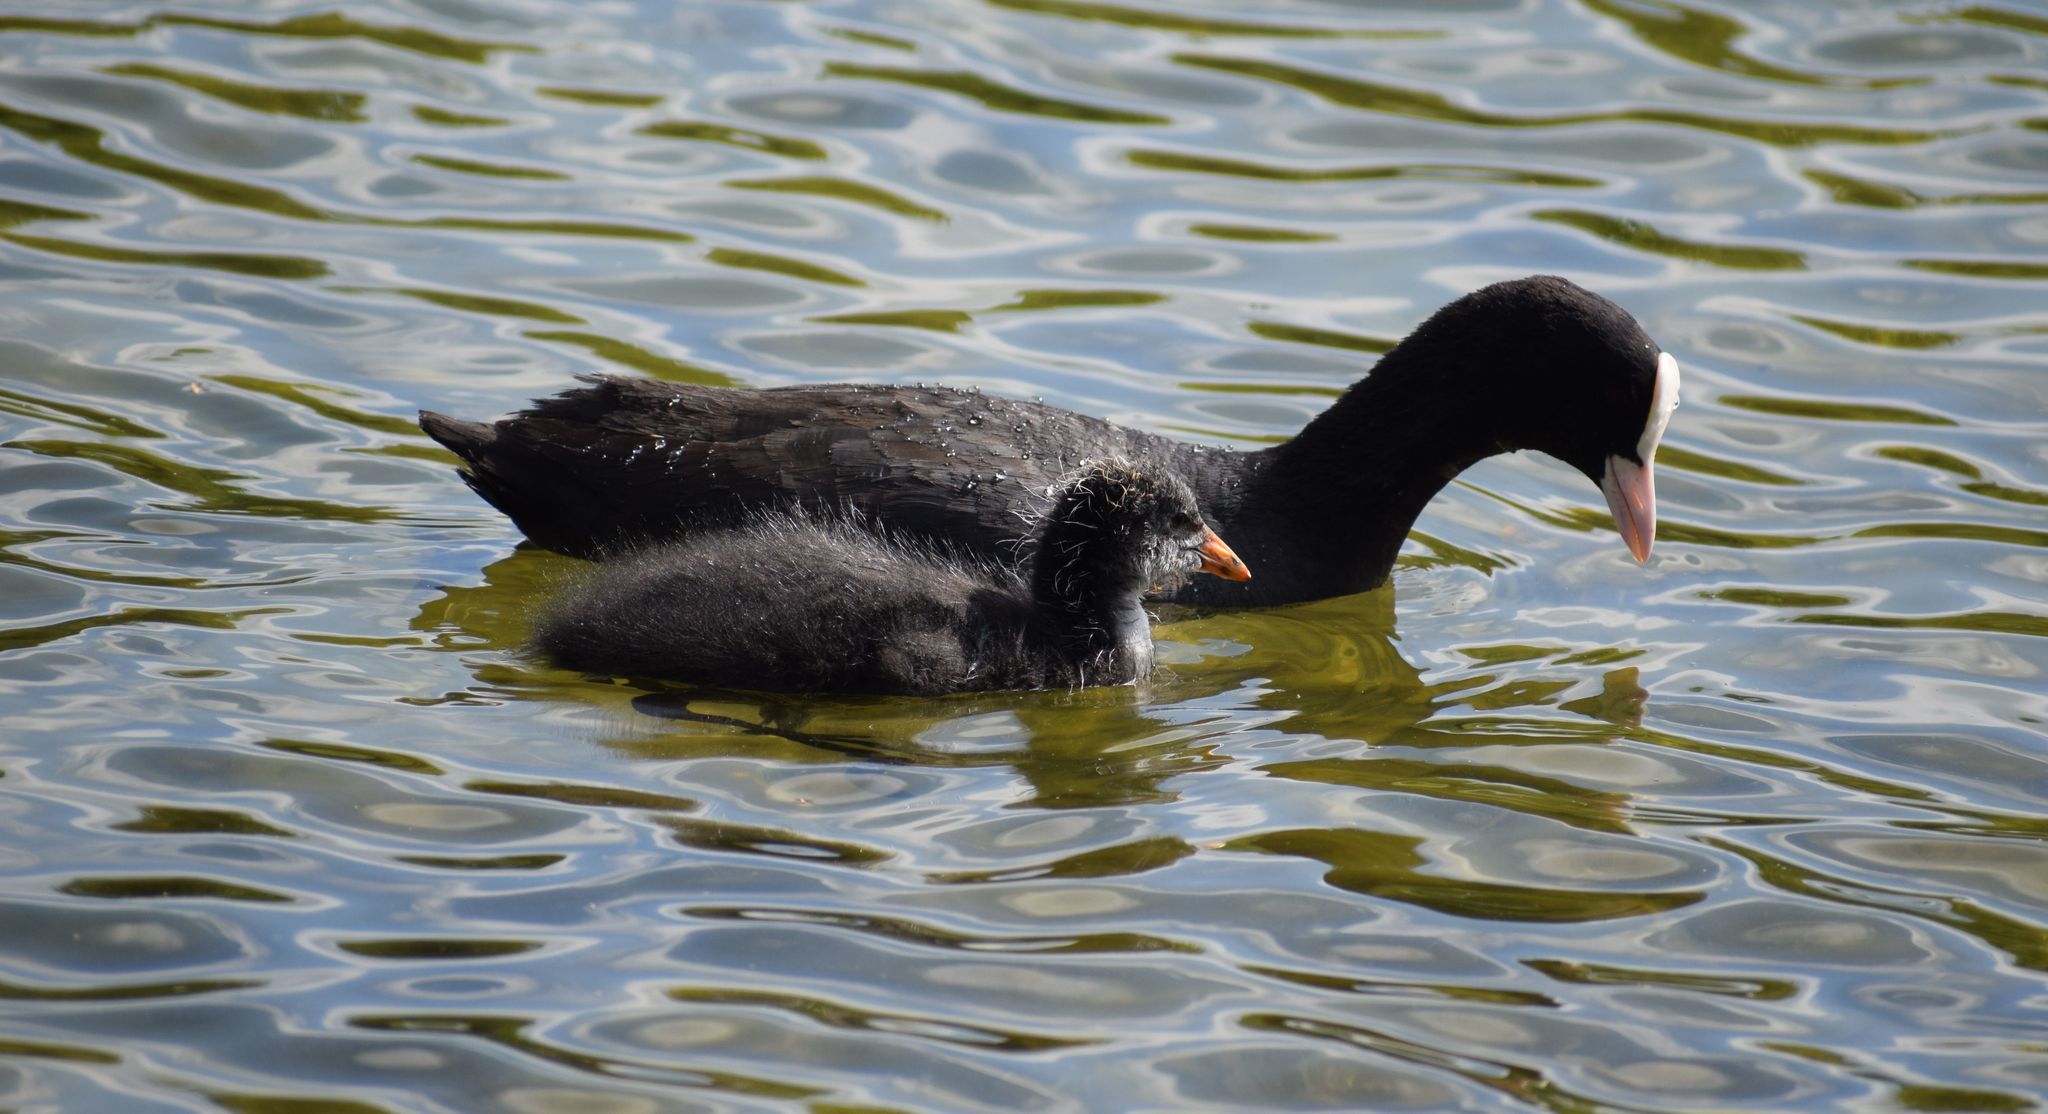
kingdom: Animalia
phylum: Chordata
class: Aves
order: Gruiformes
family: Rallidae
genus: Fulica
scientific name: Fulica atra
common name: Eurasian coot
